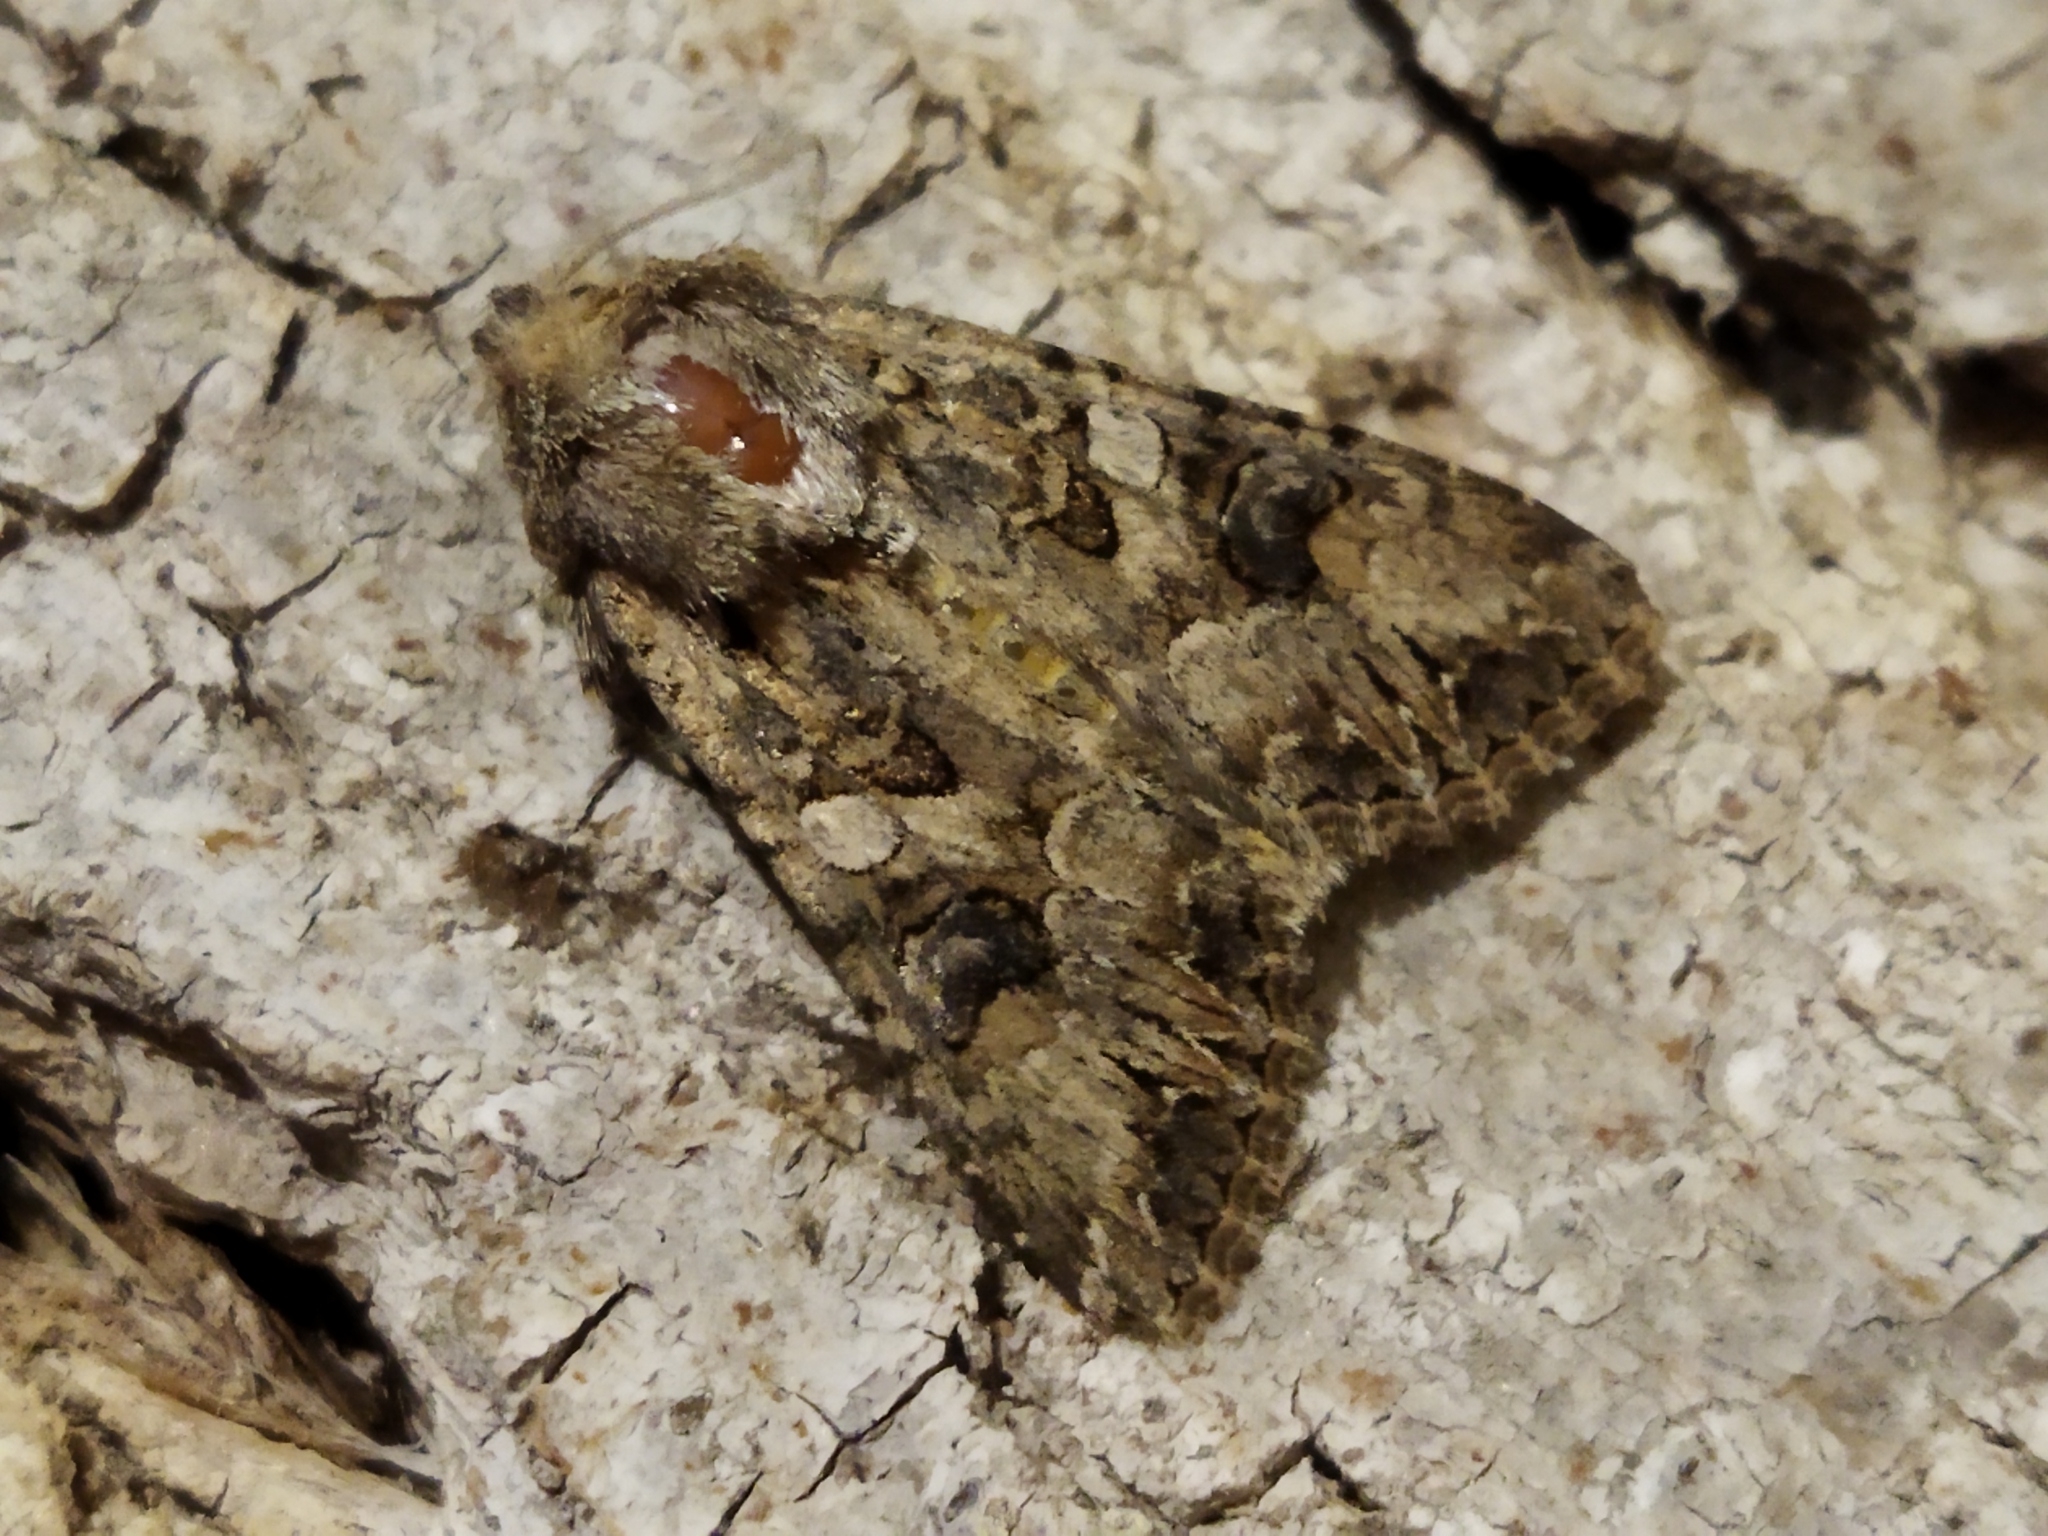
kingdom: Animalia
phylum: Arthropoda
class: Insecta
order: Lepidoptera
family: Noctuidae
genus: Anarta
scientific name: Anarta trifolii
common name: Clover cutworm moth
